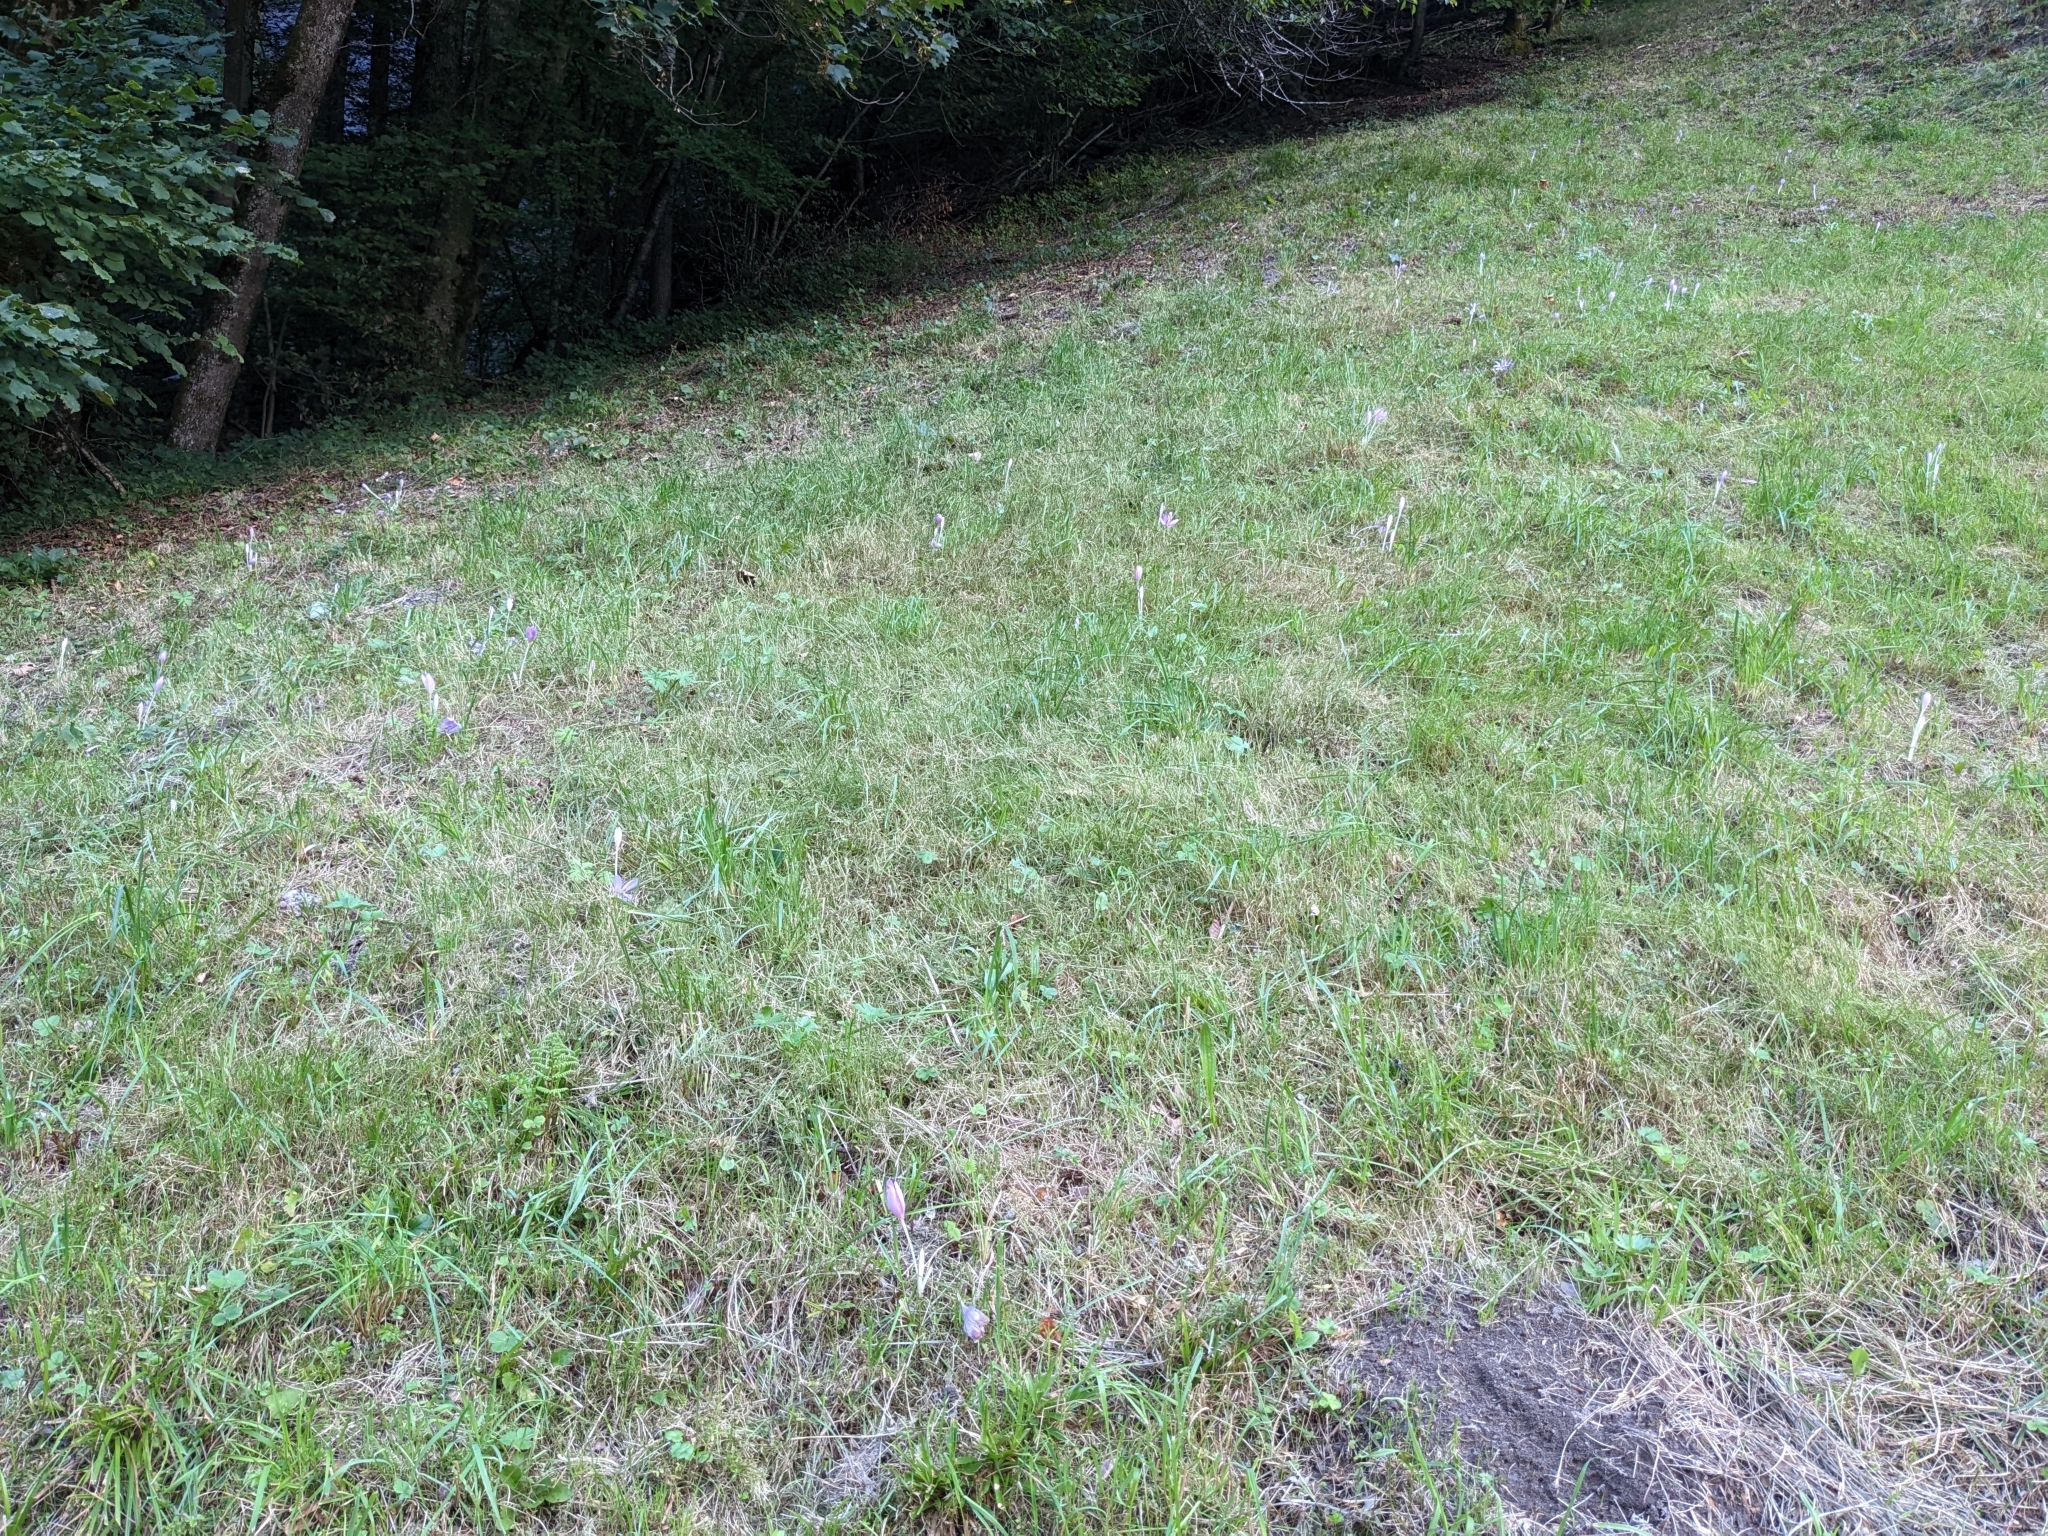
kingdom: Plantae
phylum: Tracheophyta
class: Liliopsida
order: Liliales
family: Colchicaceae
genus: Colchicum
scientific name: Colchicum autumnale
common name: Autumn crocus
